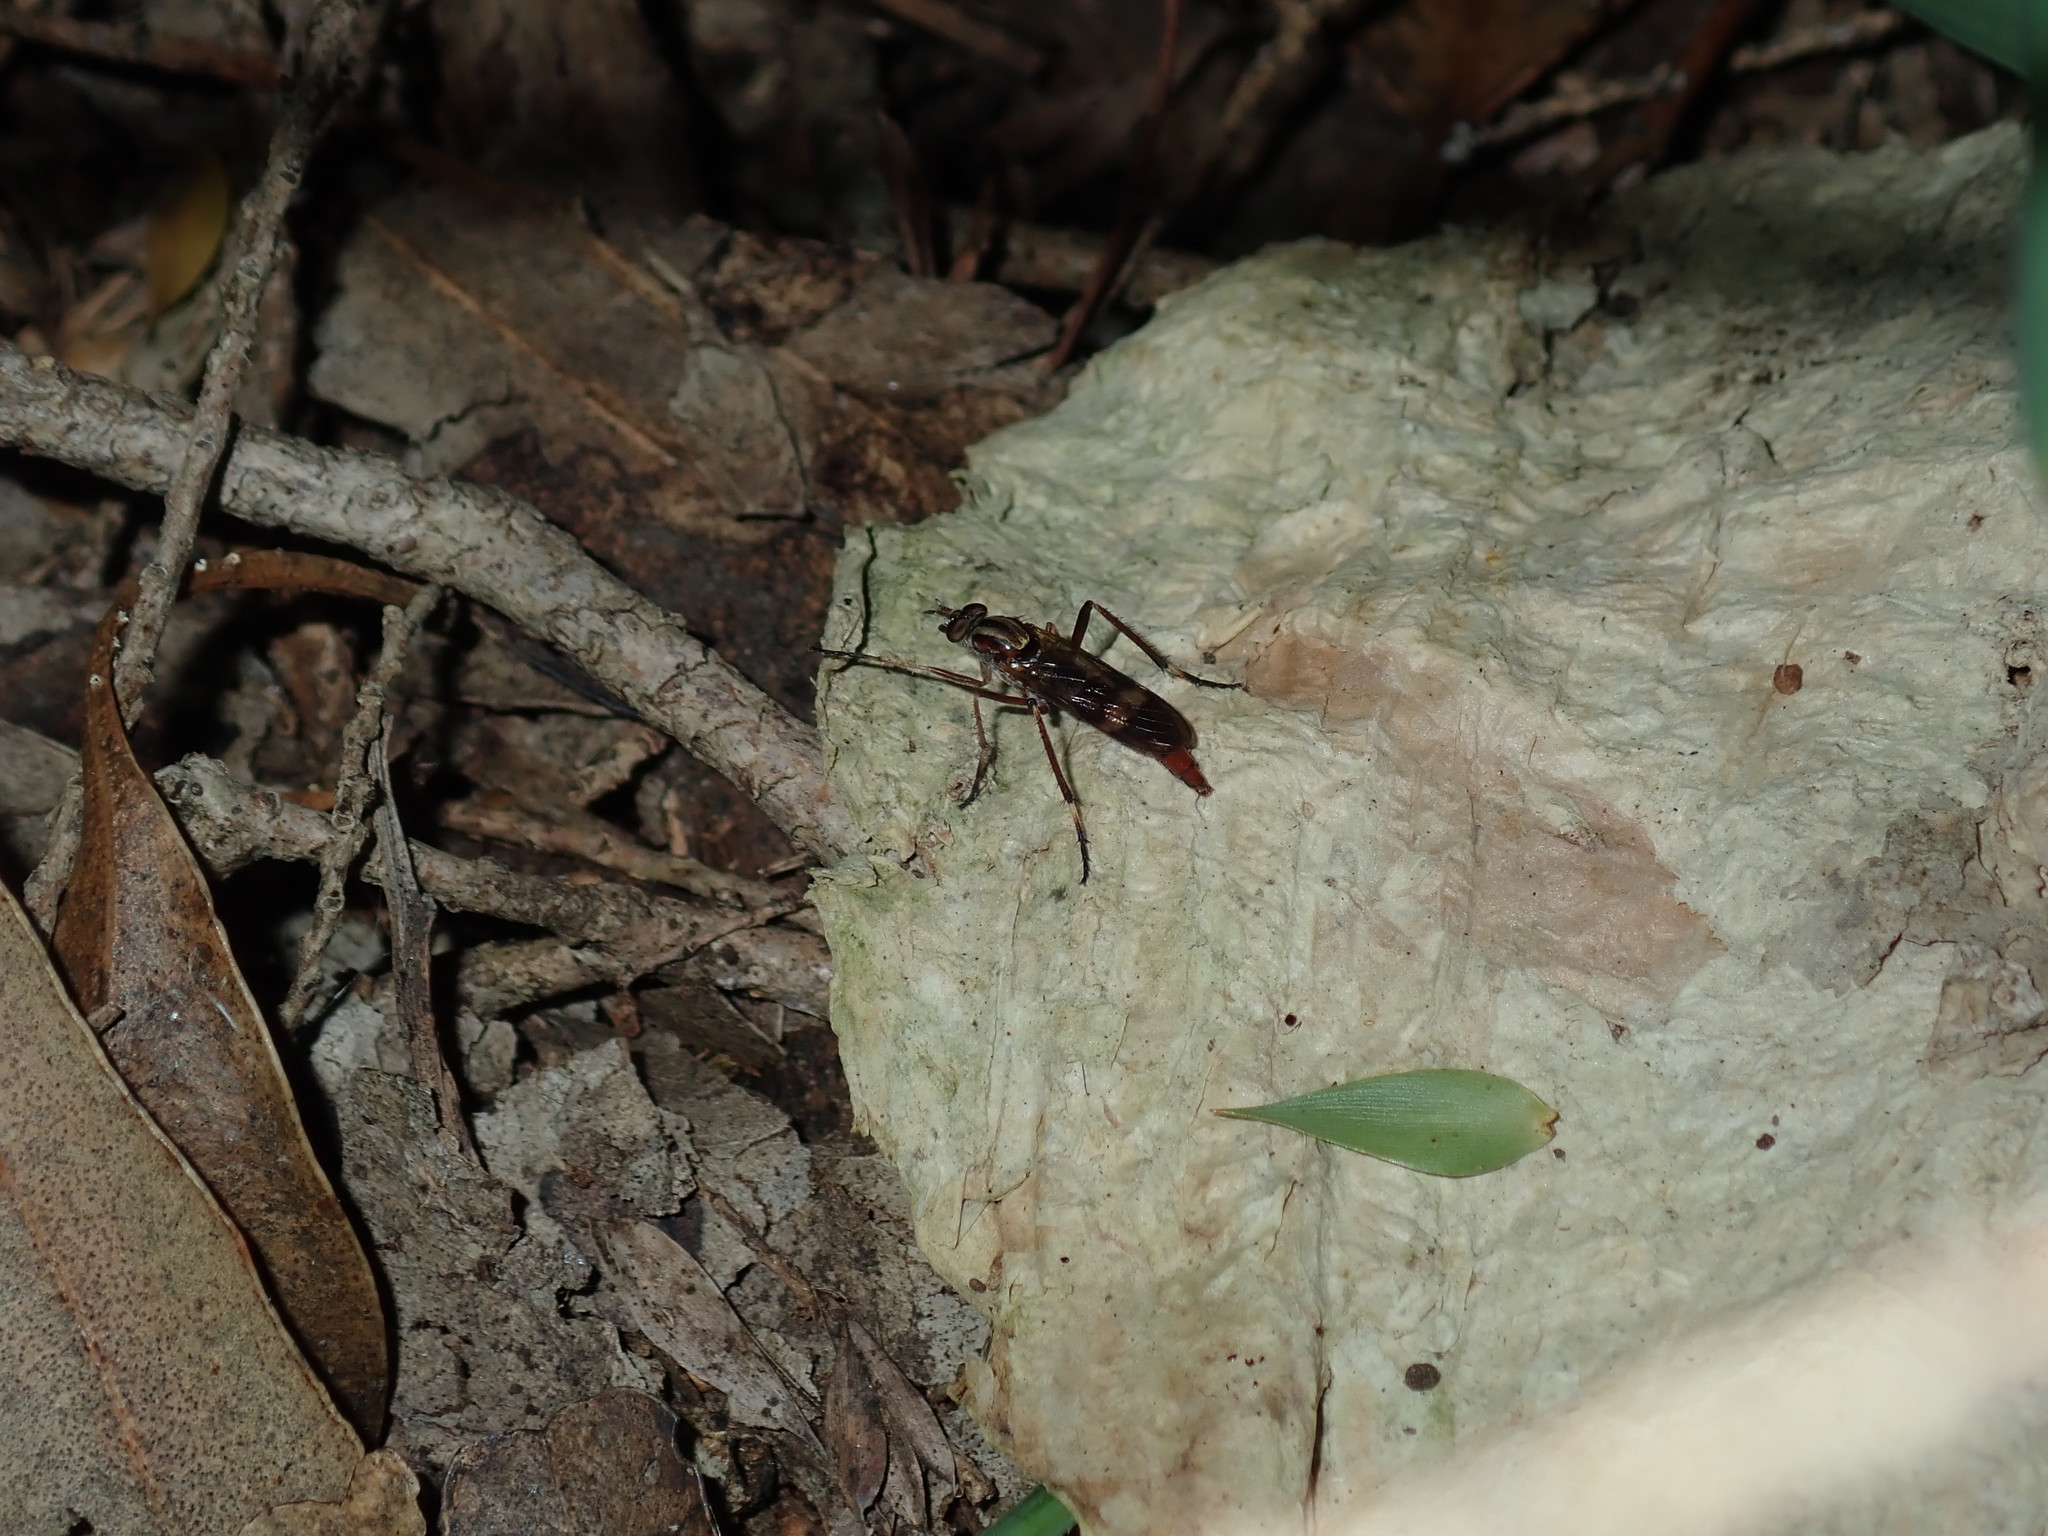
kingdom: Animalia
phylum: Arthropoda
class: Insecta
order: Diptera
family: Therevidae
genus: Ectinorhynchus
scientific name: Ectinorhynchus
